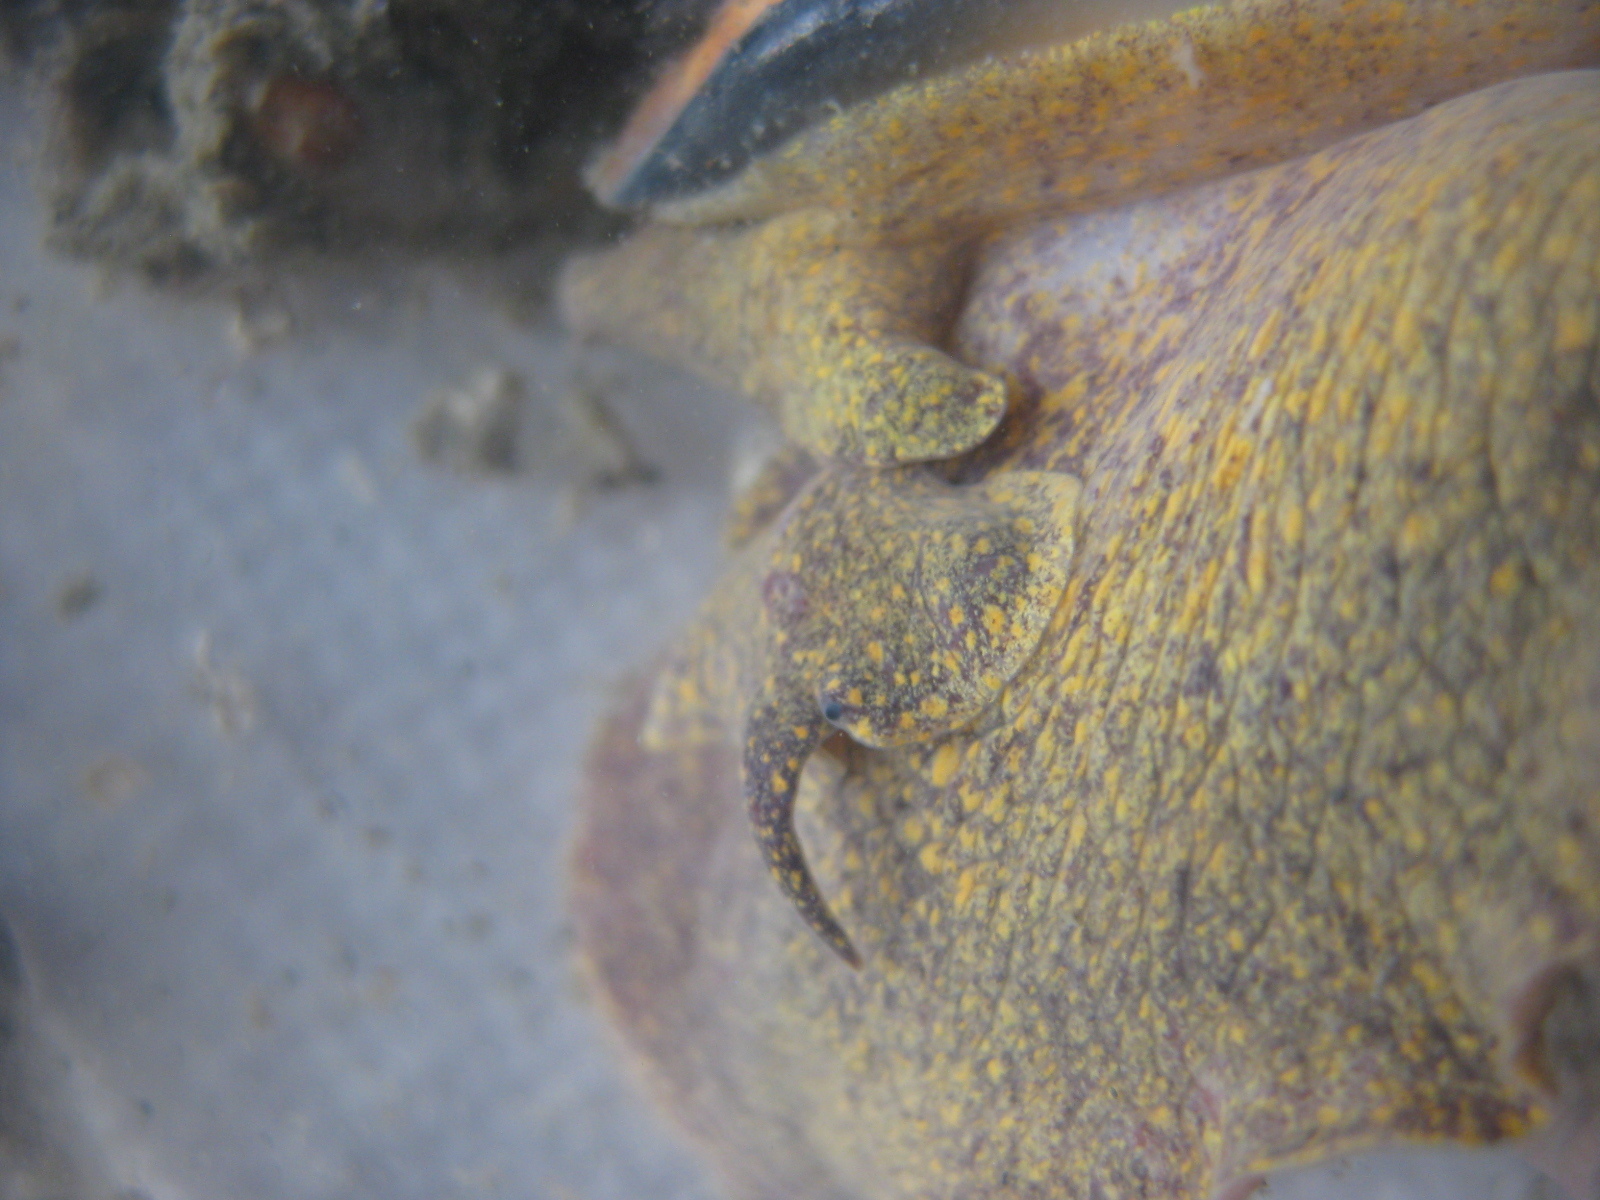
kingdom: Animalia
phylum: Mollusca
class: Gastropoda
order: Neogastropoda
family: Volutidae
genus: Alcithoe
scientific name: Alcithoe arabica
